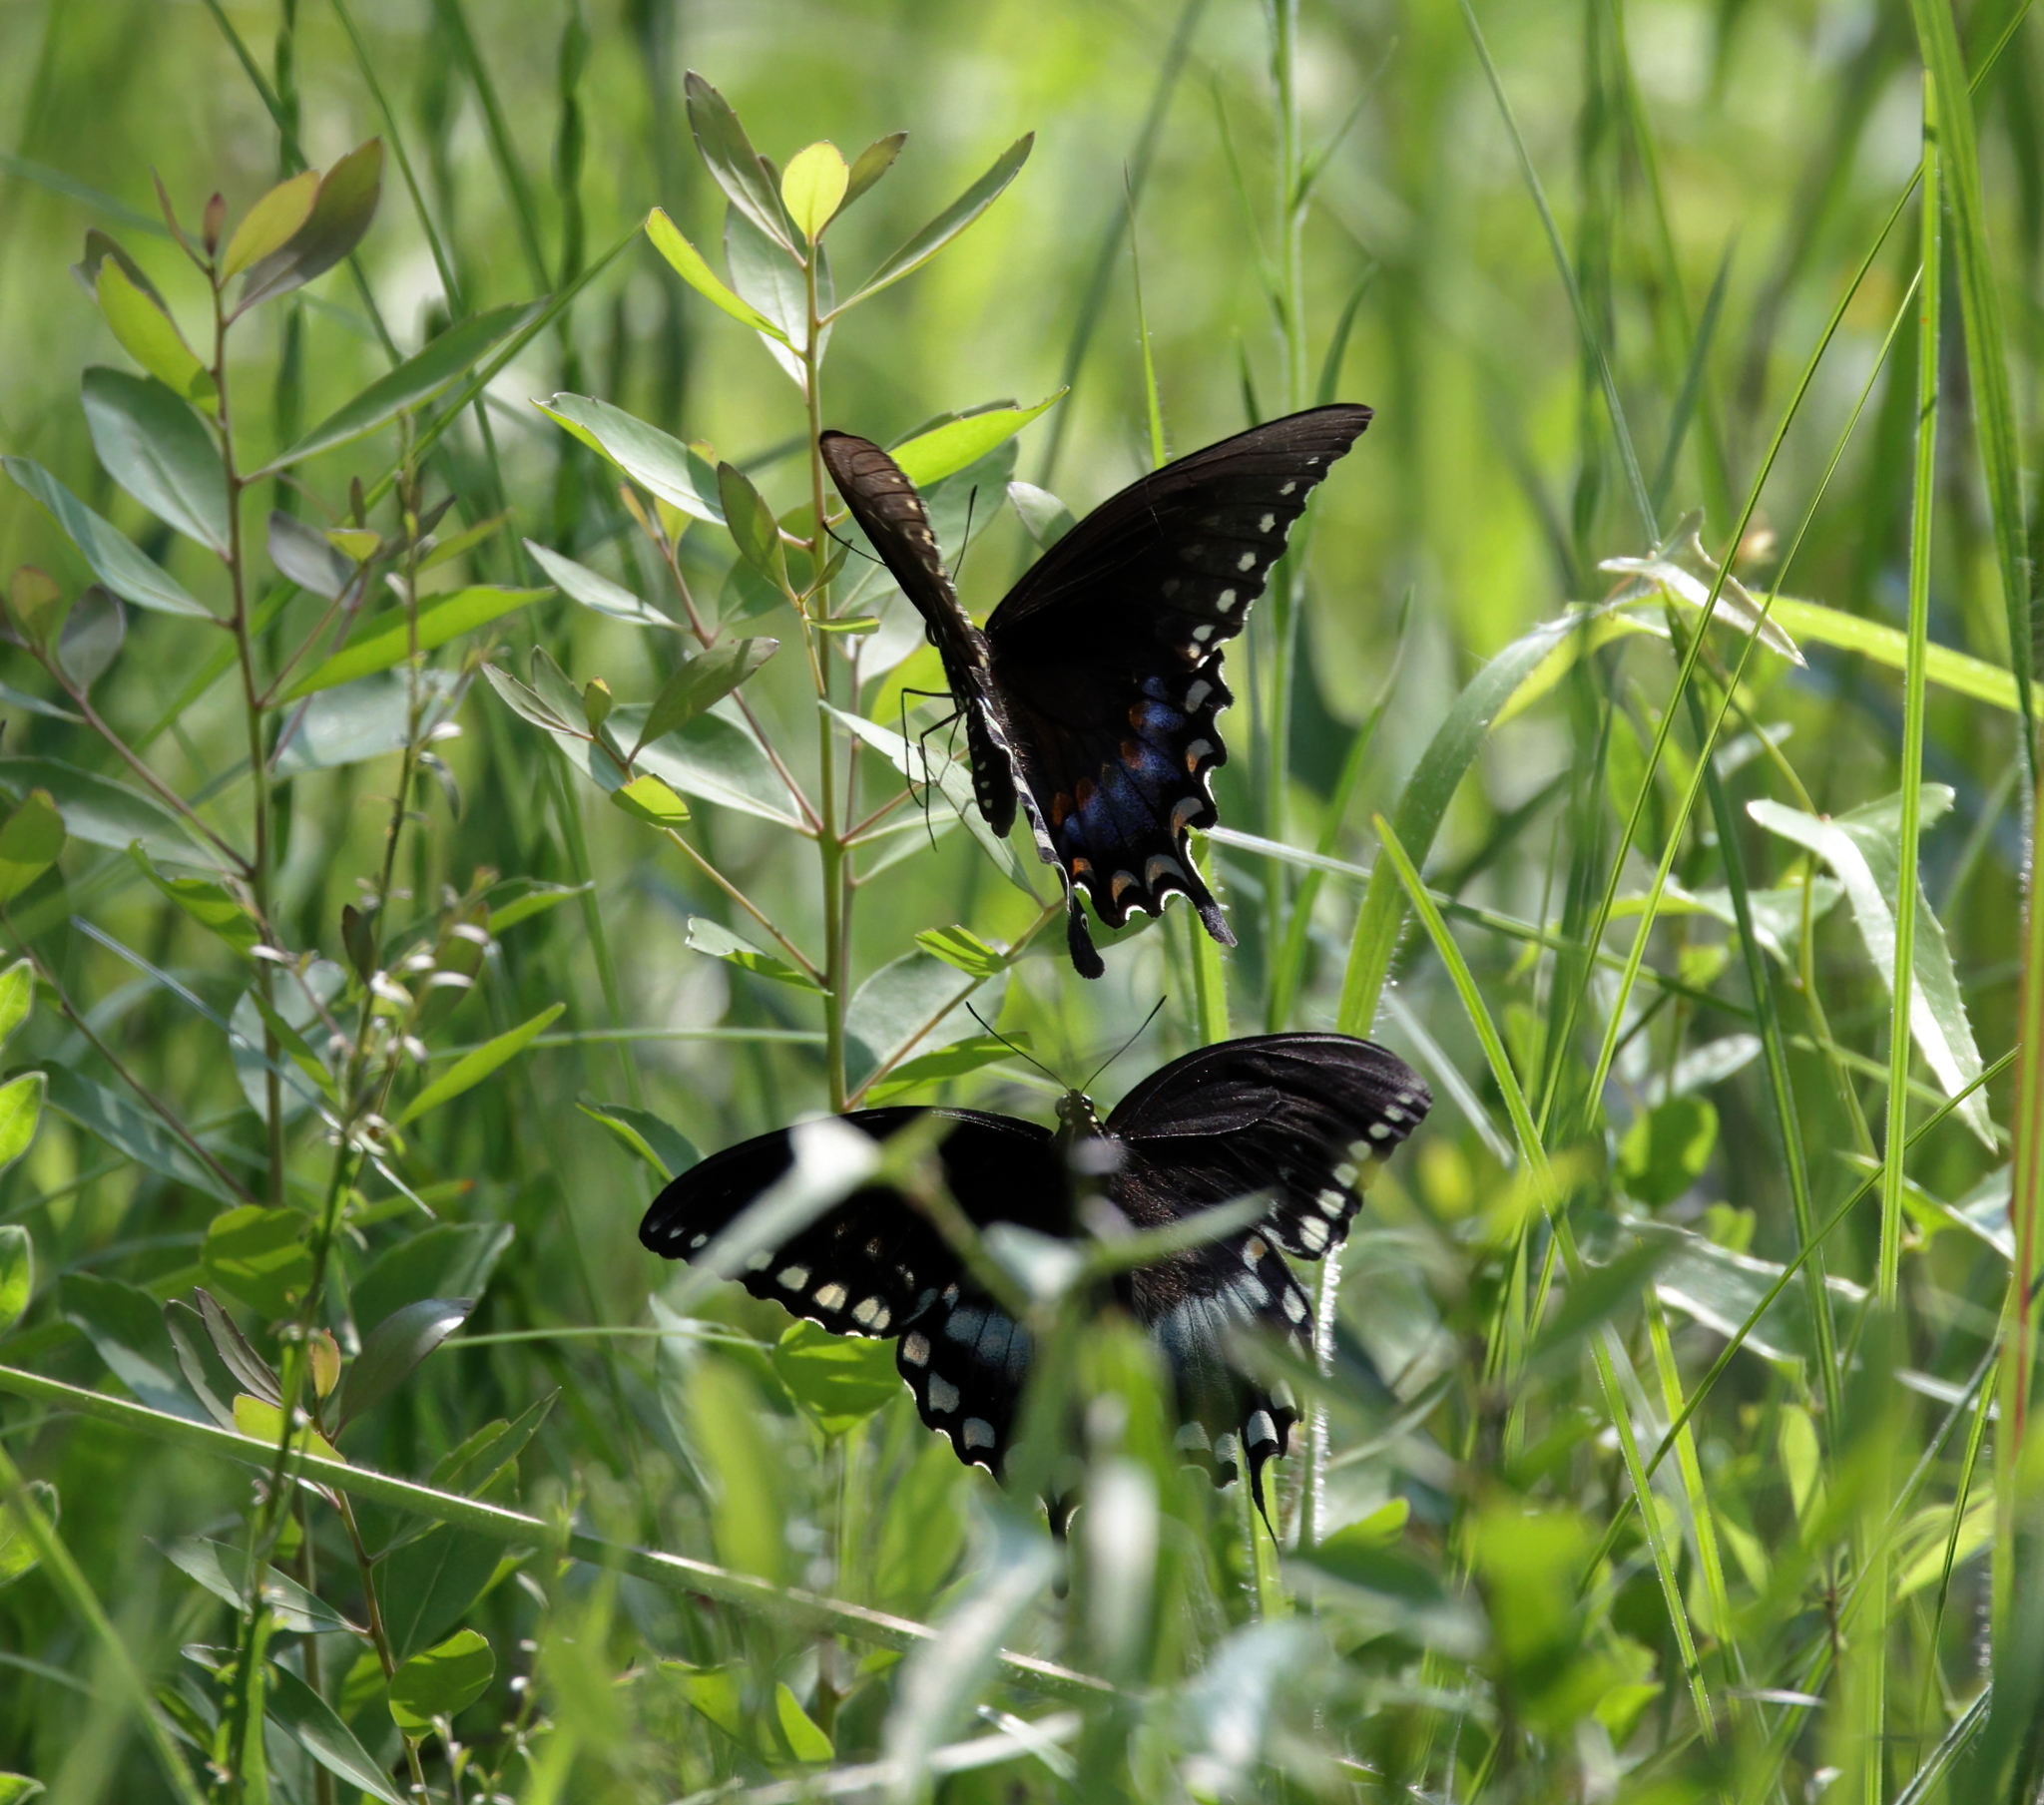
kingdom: Animalia
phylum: Arthropoda
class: Insecta
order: Lepidoptera
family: Papilionidae
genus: Papilio
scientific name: Papilio troilus
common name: Spicebush swallowtail
